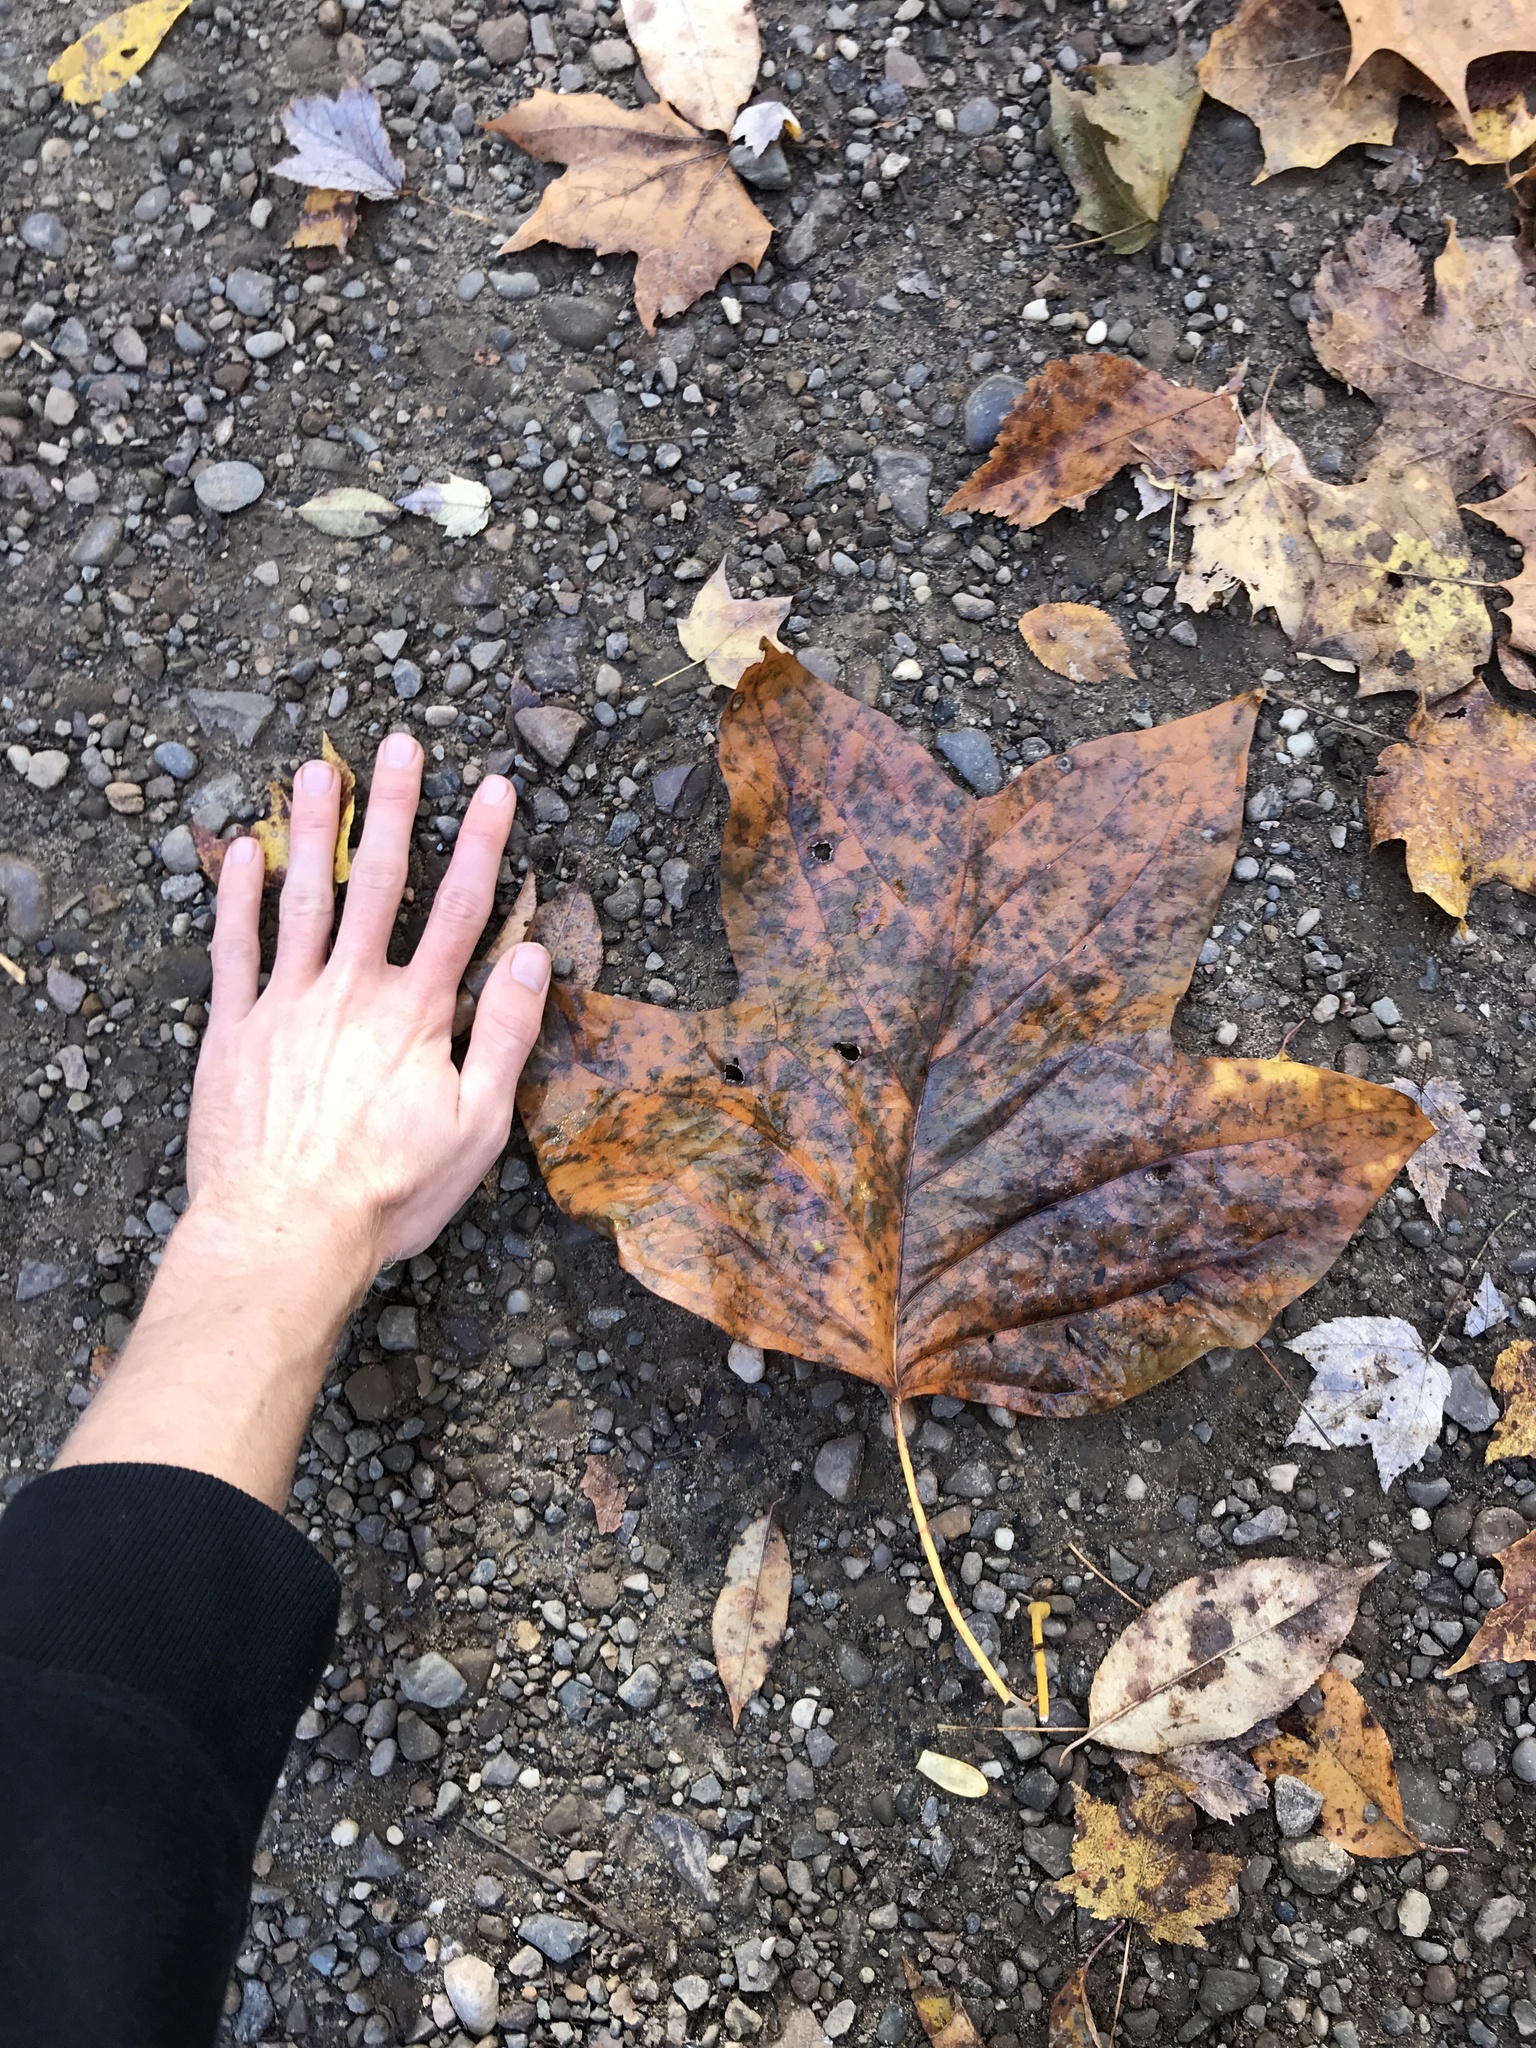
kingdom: Plantae
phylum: Tracheophyta
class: Magnoliopsida
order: Magnoliales
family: Magnoliaceae
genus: Liriodendron
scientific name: Liriodendron tulipifera
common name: Tulip tree
